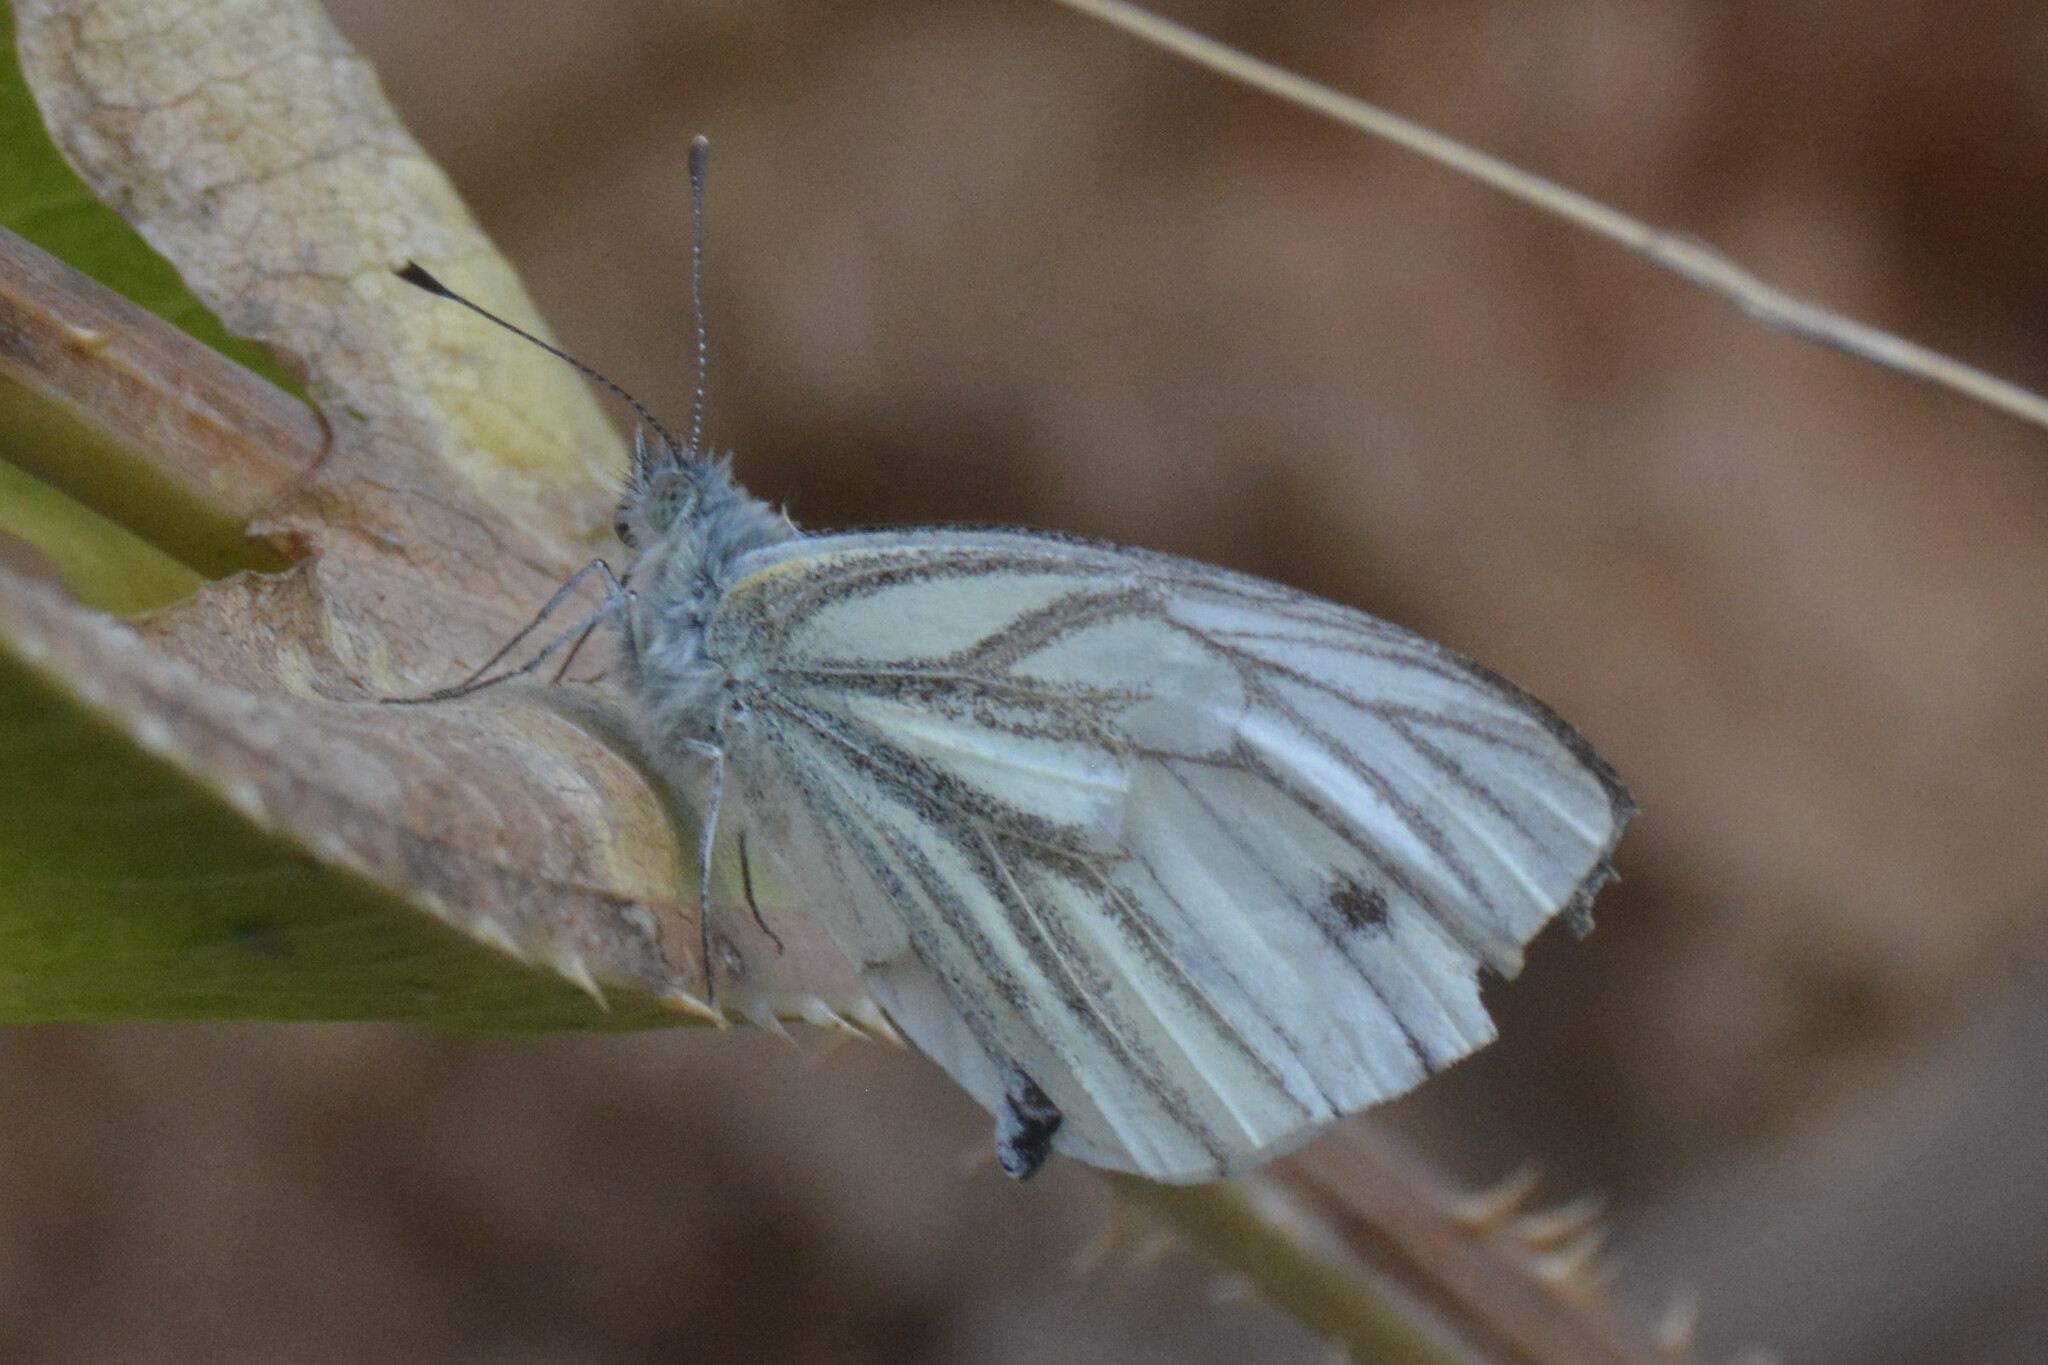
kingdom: Animalia
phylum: Arthropoda
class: Insecta
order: Lepidoptera
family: Pieridae
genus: Pieris
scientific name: Pieris napi
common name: Green-veined white
